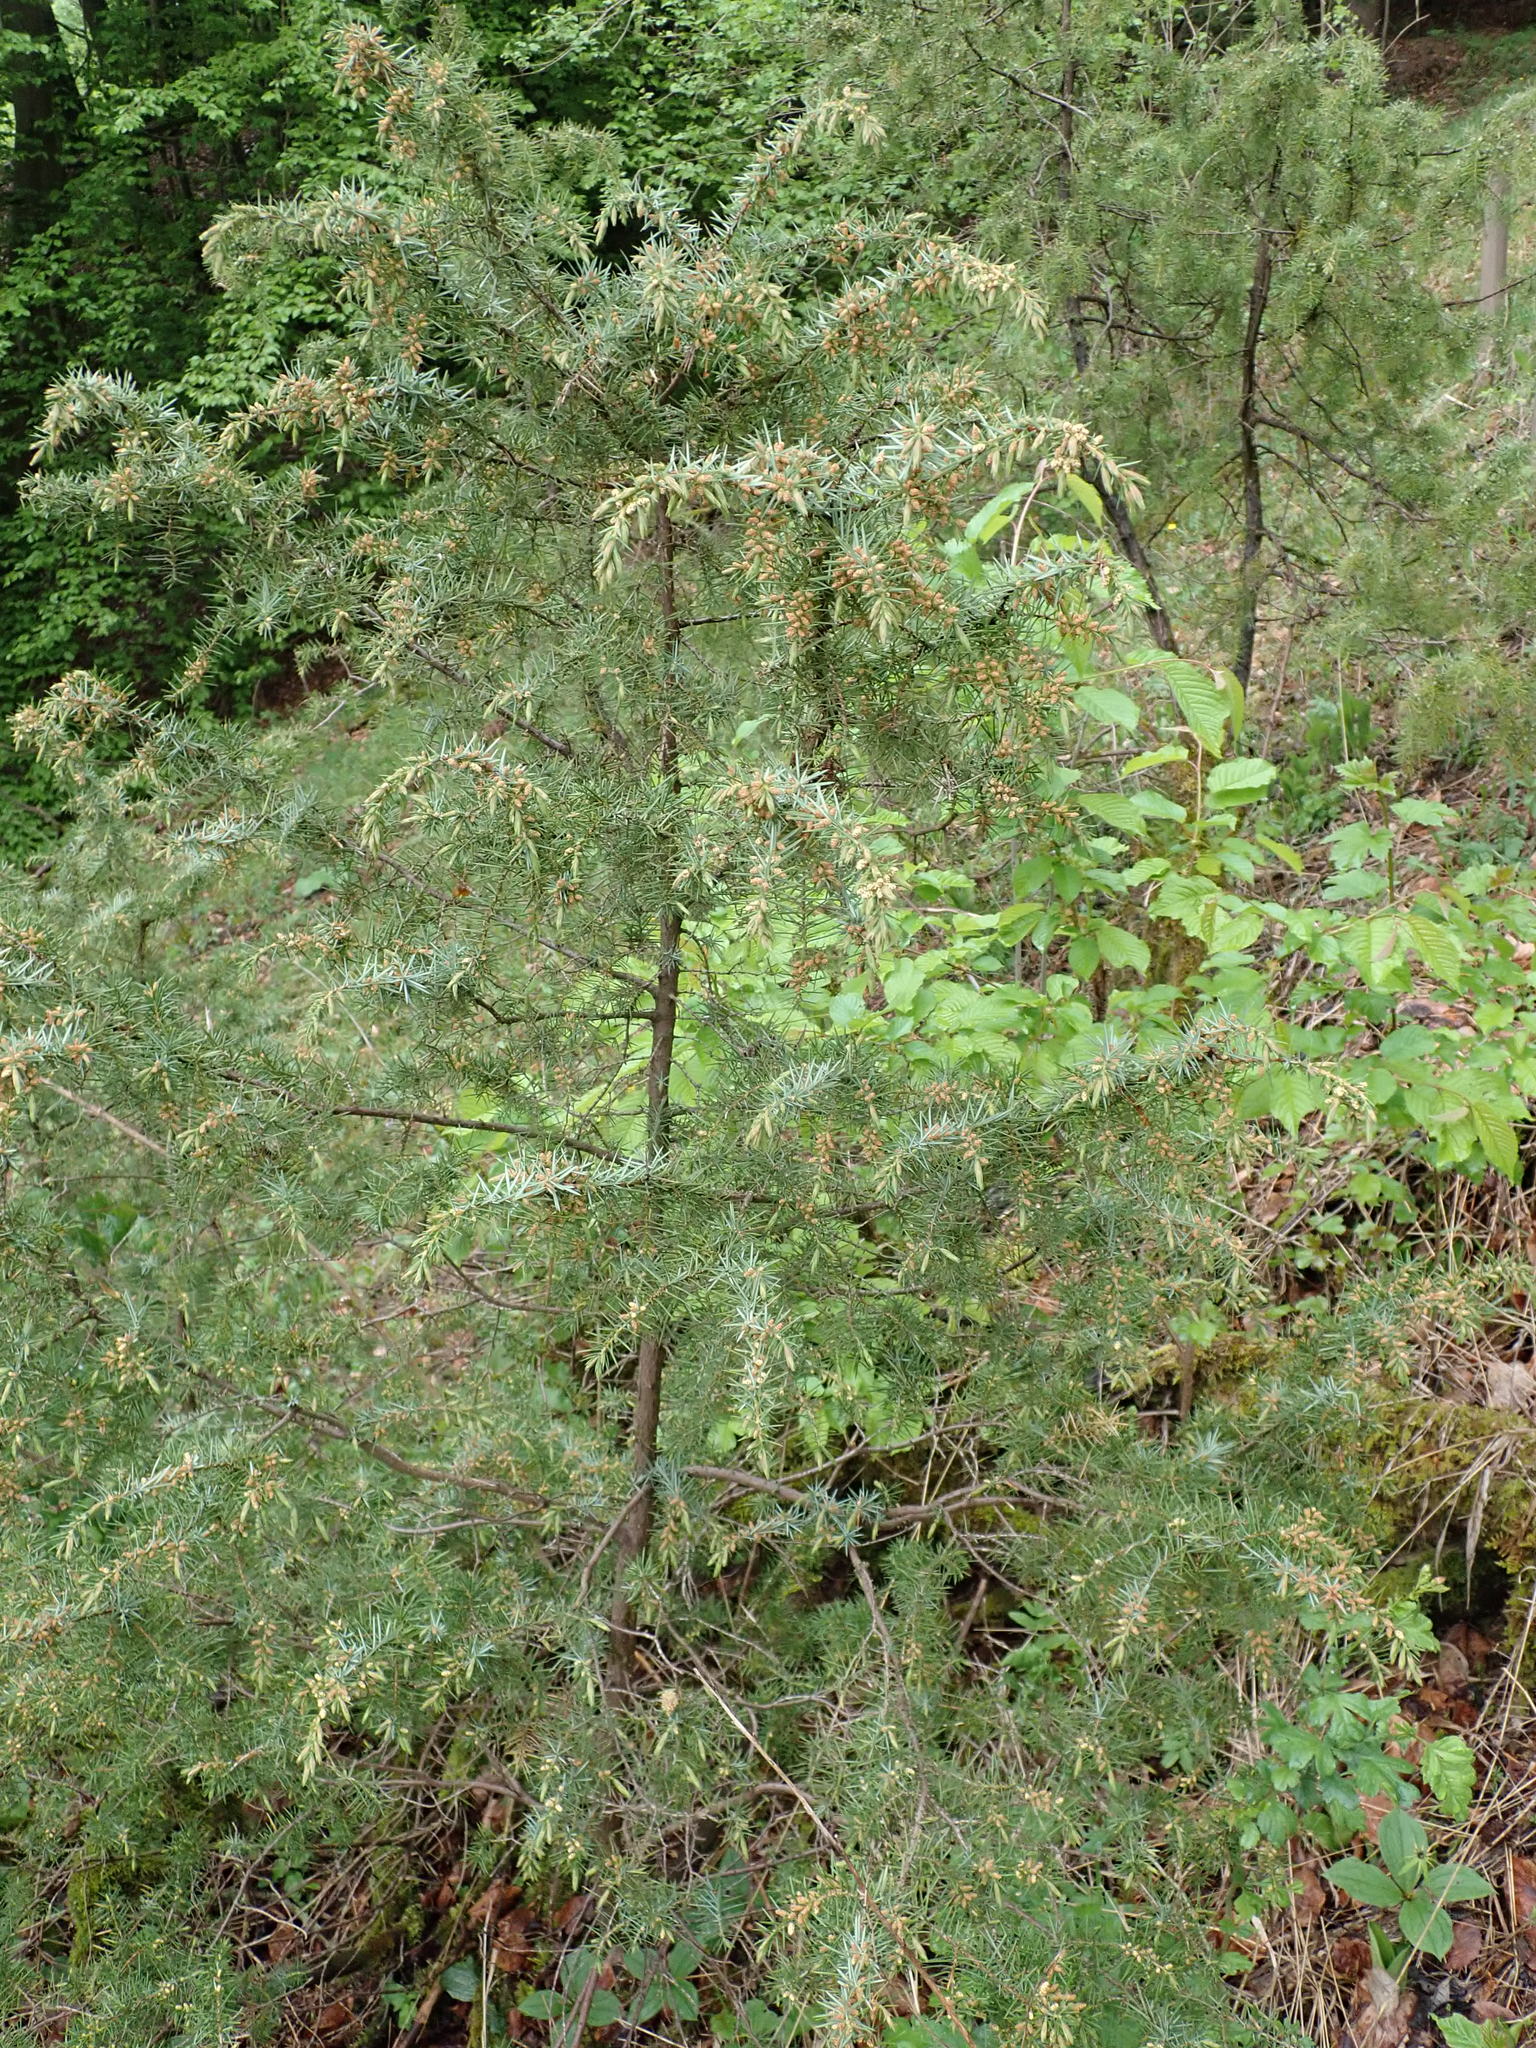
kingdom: Plantae
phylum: Tracheophyta
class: Pinopsida
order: Pinales
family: Cupressaceae
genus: Juniperus
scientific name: Juniperus communis
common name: Common juniper
